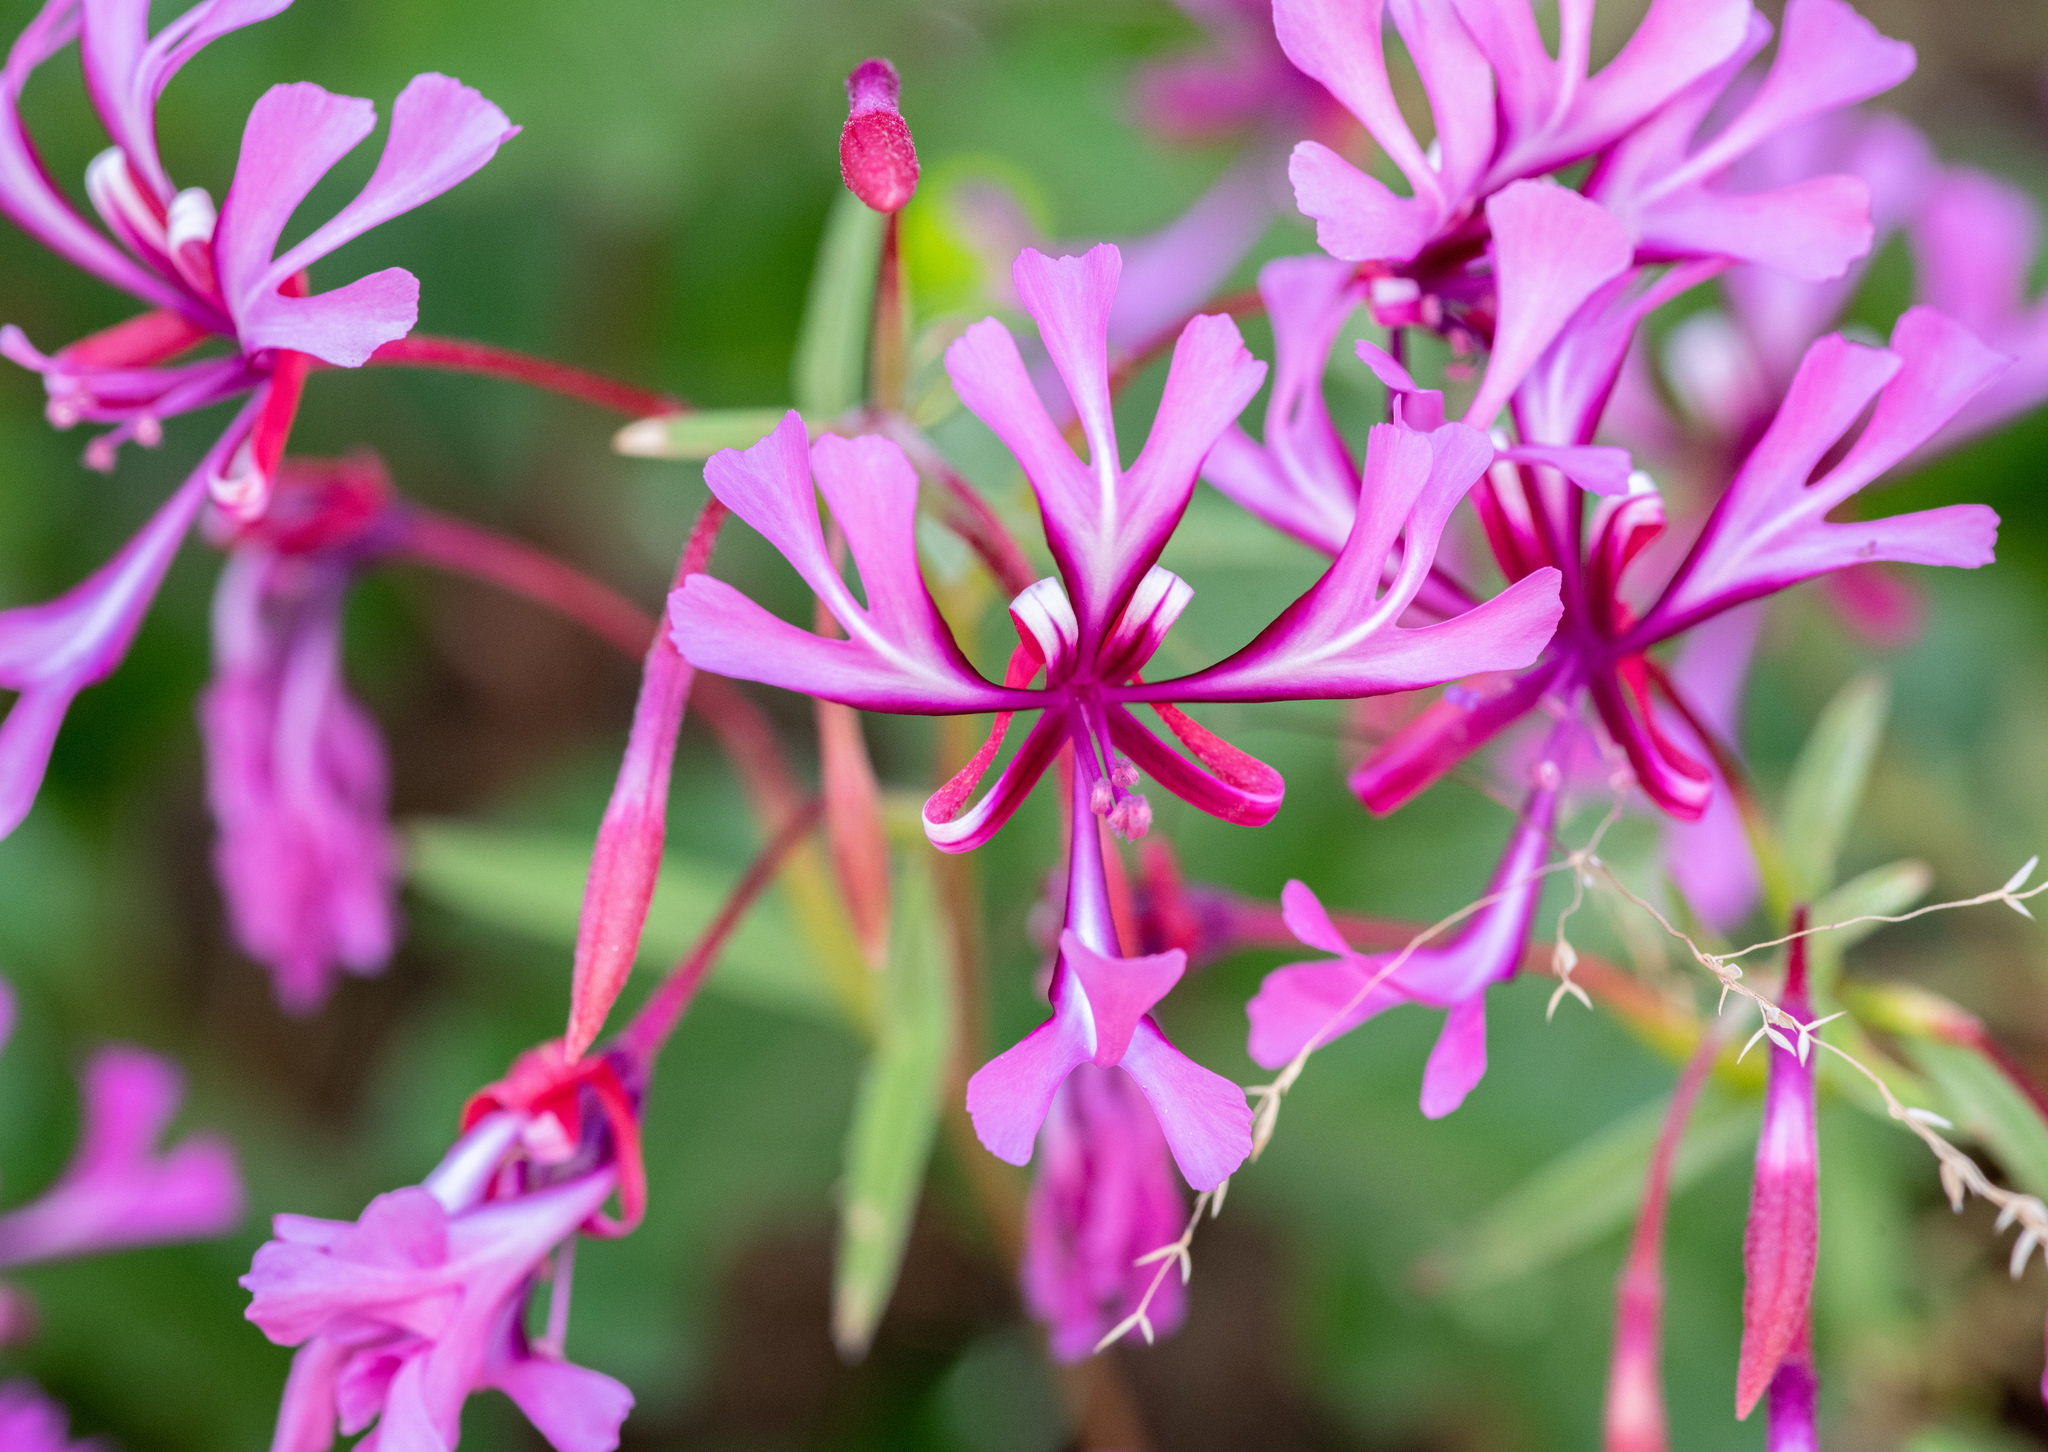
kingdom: Plantae
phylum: Tracheophyta
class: Magnoliopsida
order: Myrtales
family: Onagraceae
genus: Clarkia
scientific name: Clarkia concinna
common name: Red-ribbons
